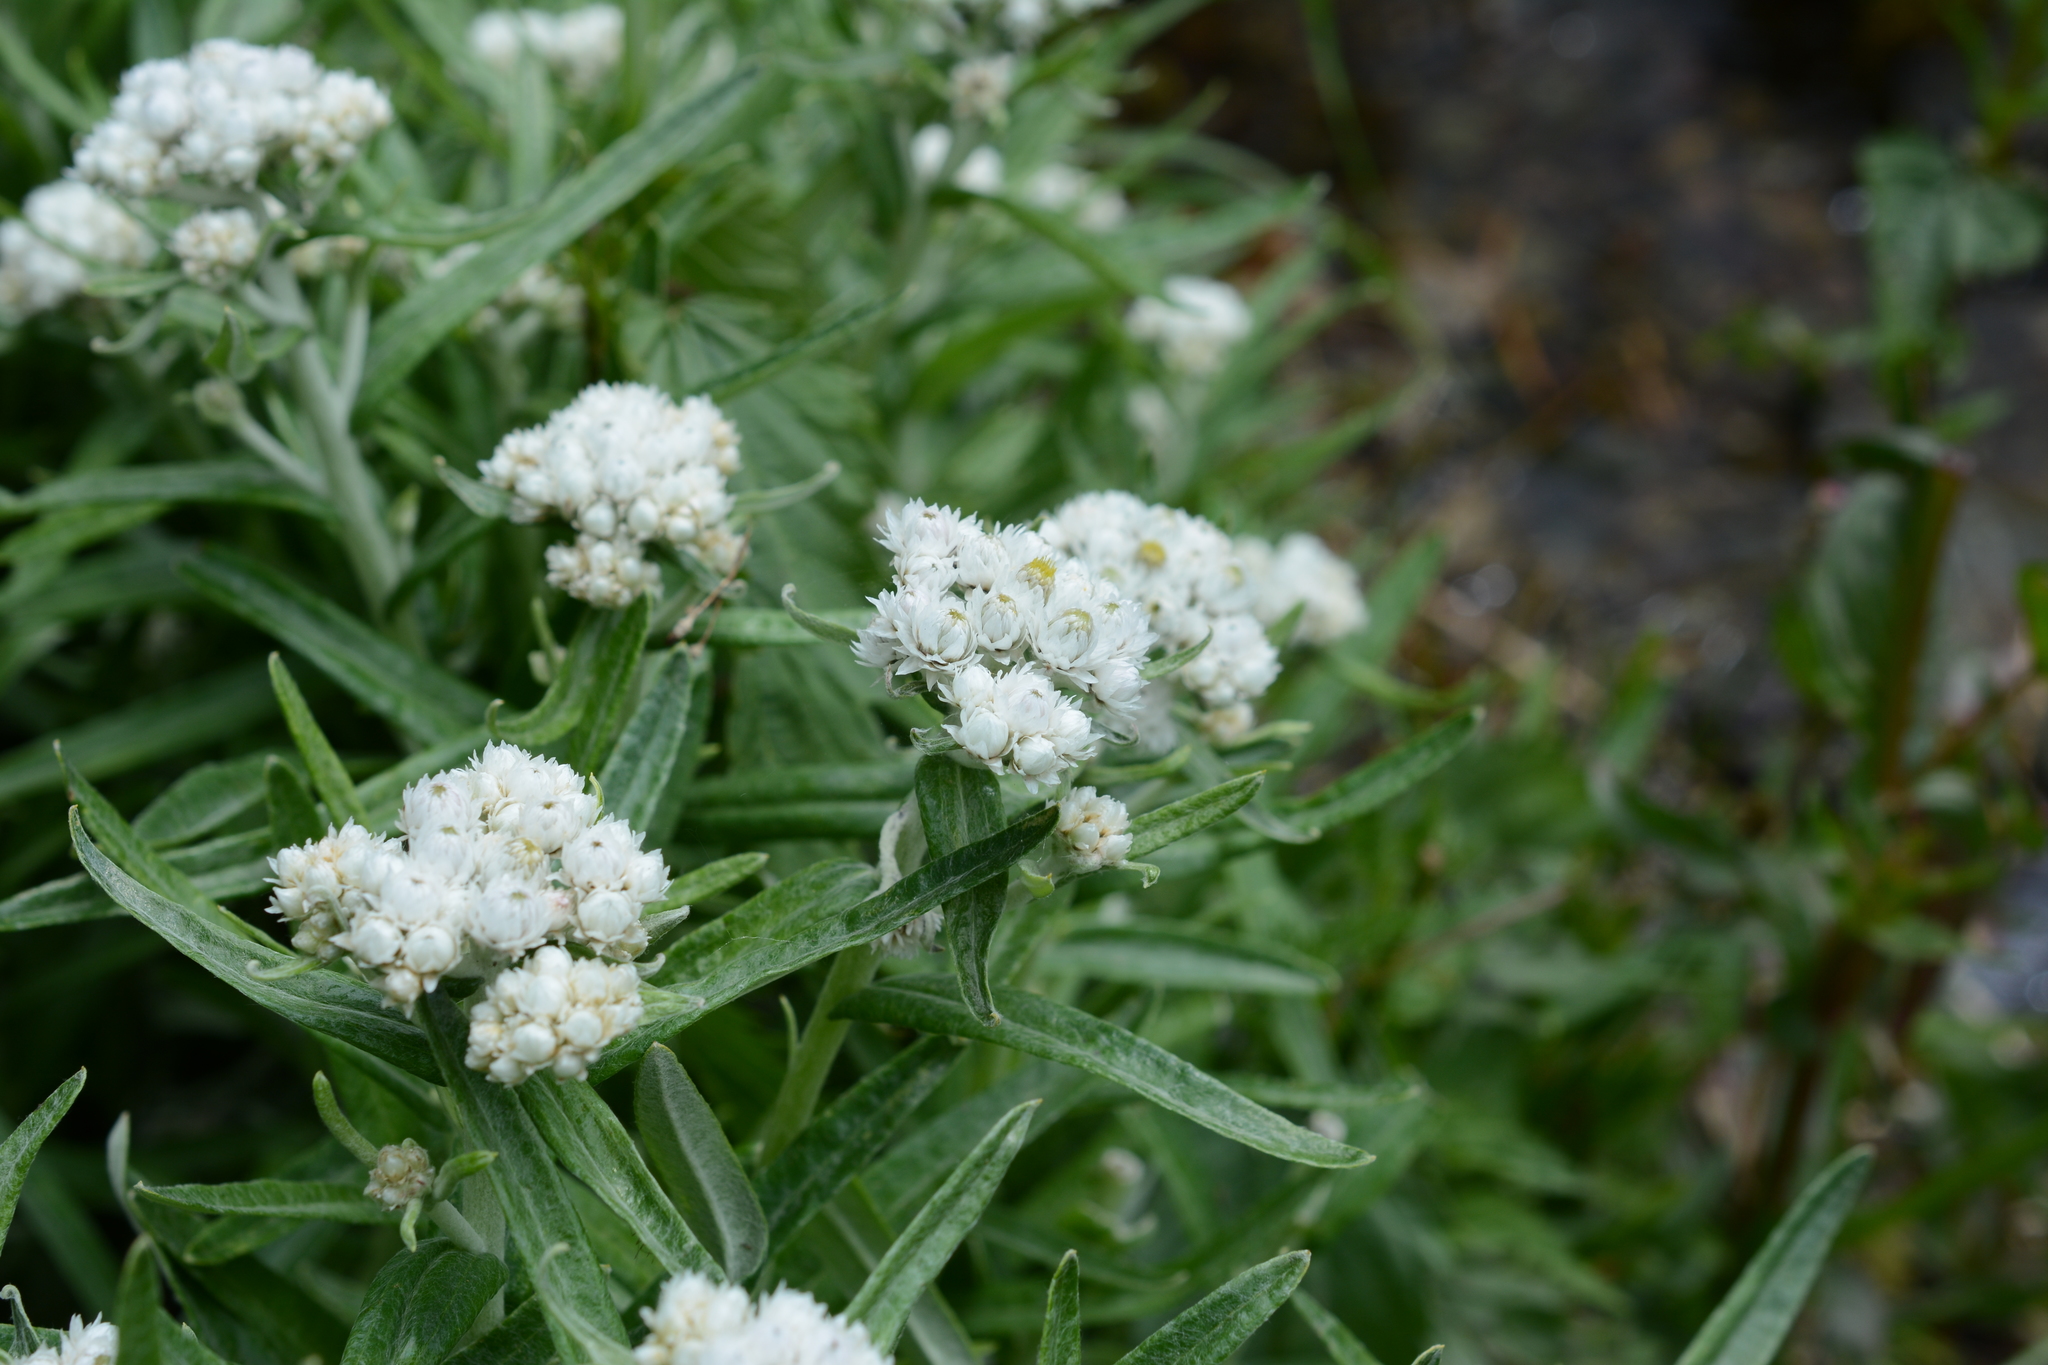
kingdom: Plantae
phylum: Tracheophyta
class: Magnoliopsida
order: Asterales
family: Asteraceae
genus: Anaphalis
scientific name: Anaphalis margaritacea
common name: Pearly everlasting
